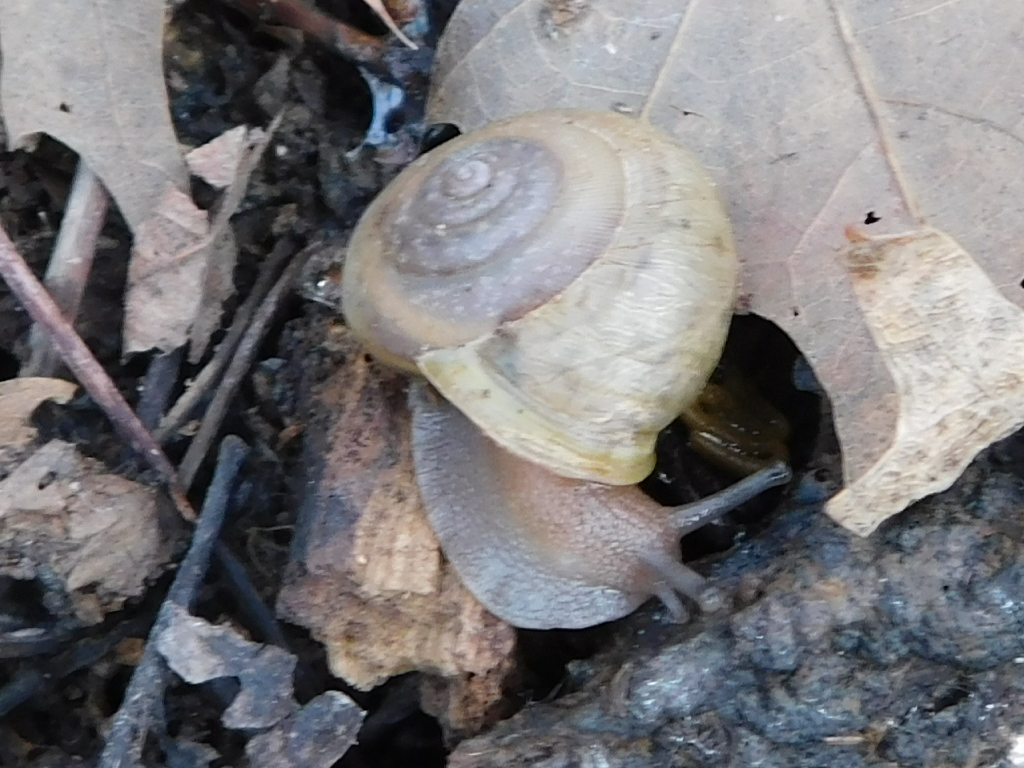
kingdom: Animalia
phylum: Mollusca
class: Gastropoda
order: Stylommatophora
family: Polygyridae
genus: Patera
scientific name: Patera roemeri
